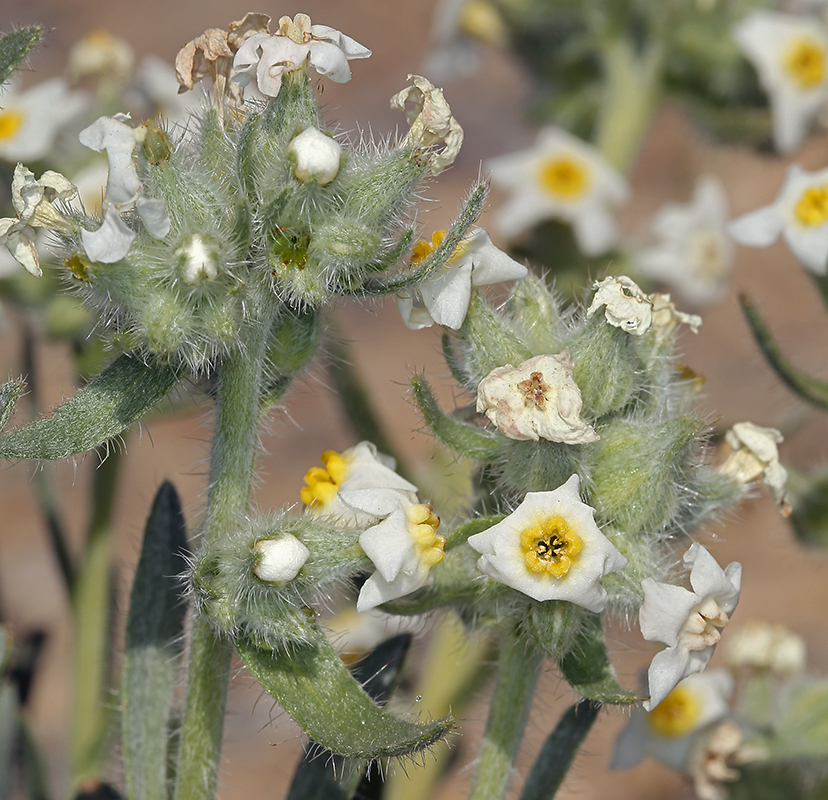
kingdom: Plantae
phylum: Tracheophyta
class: Magnoliopsida
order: Boraginales
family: Boraginaceae
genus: Oreocarya
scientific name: Oreocarya flavoculata
